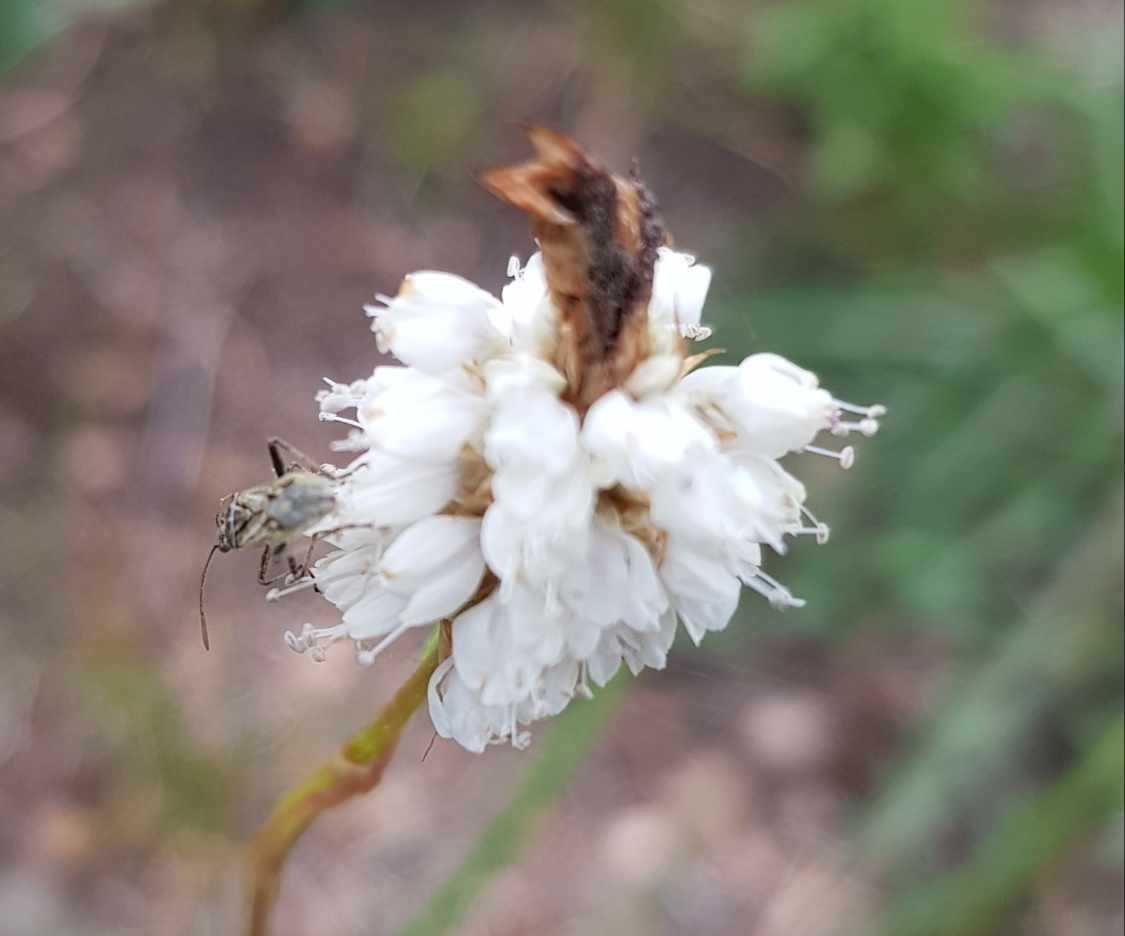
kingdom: Plantae
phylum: Tracheophyta
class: Magnoliopsida
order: Caryophyllales
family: Polygonaceae
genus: Bistorta
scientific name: Bistorta elliptica
